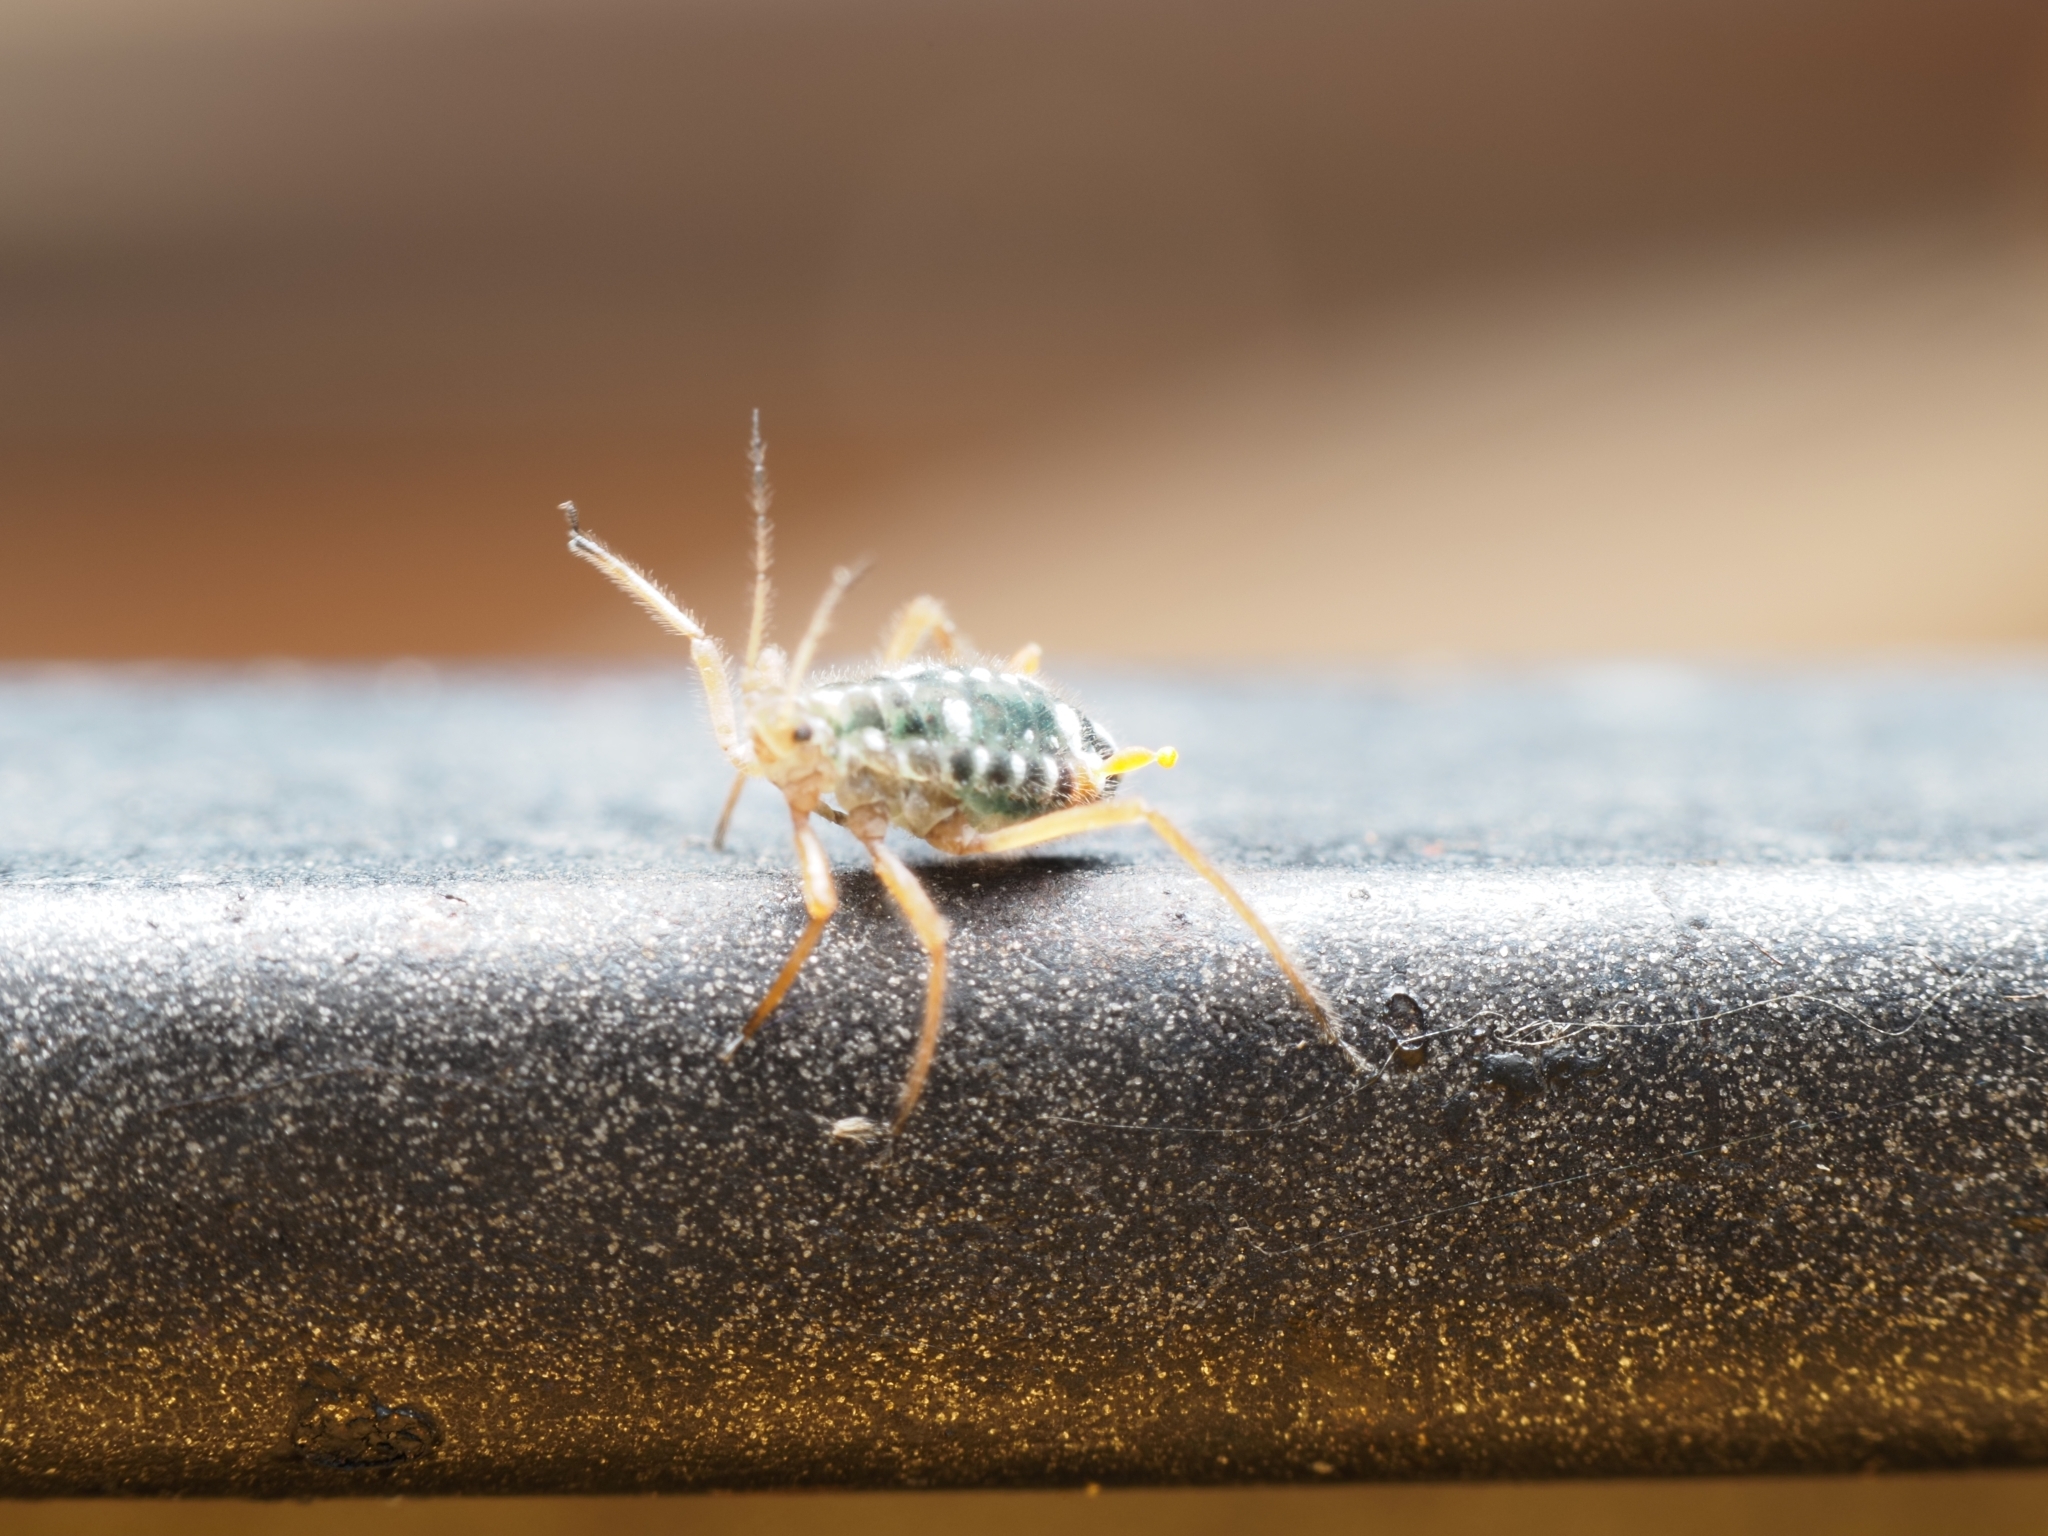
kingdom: Animalia
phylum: Arthropoda
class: Insecta
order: Hemiptera
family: Aphididae
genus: Pterocomma
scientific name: Pterocomma salicis
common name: Aphid
